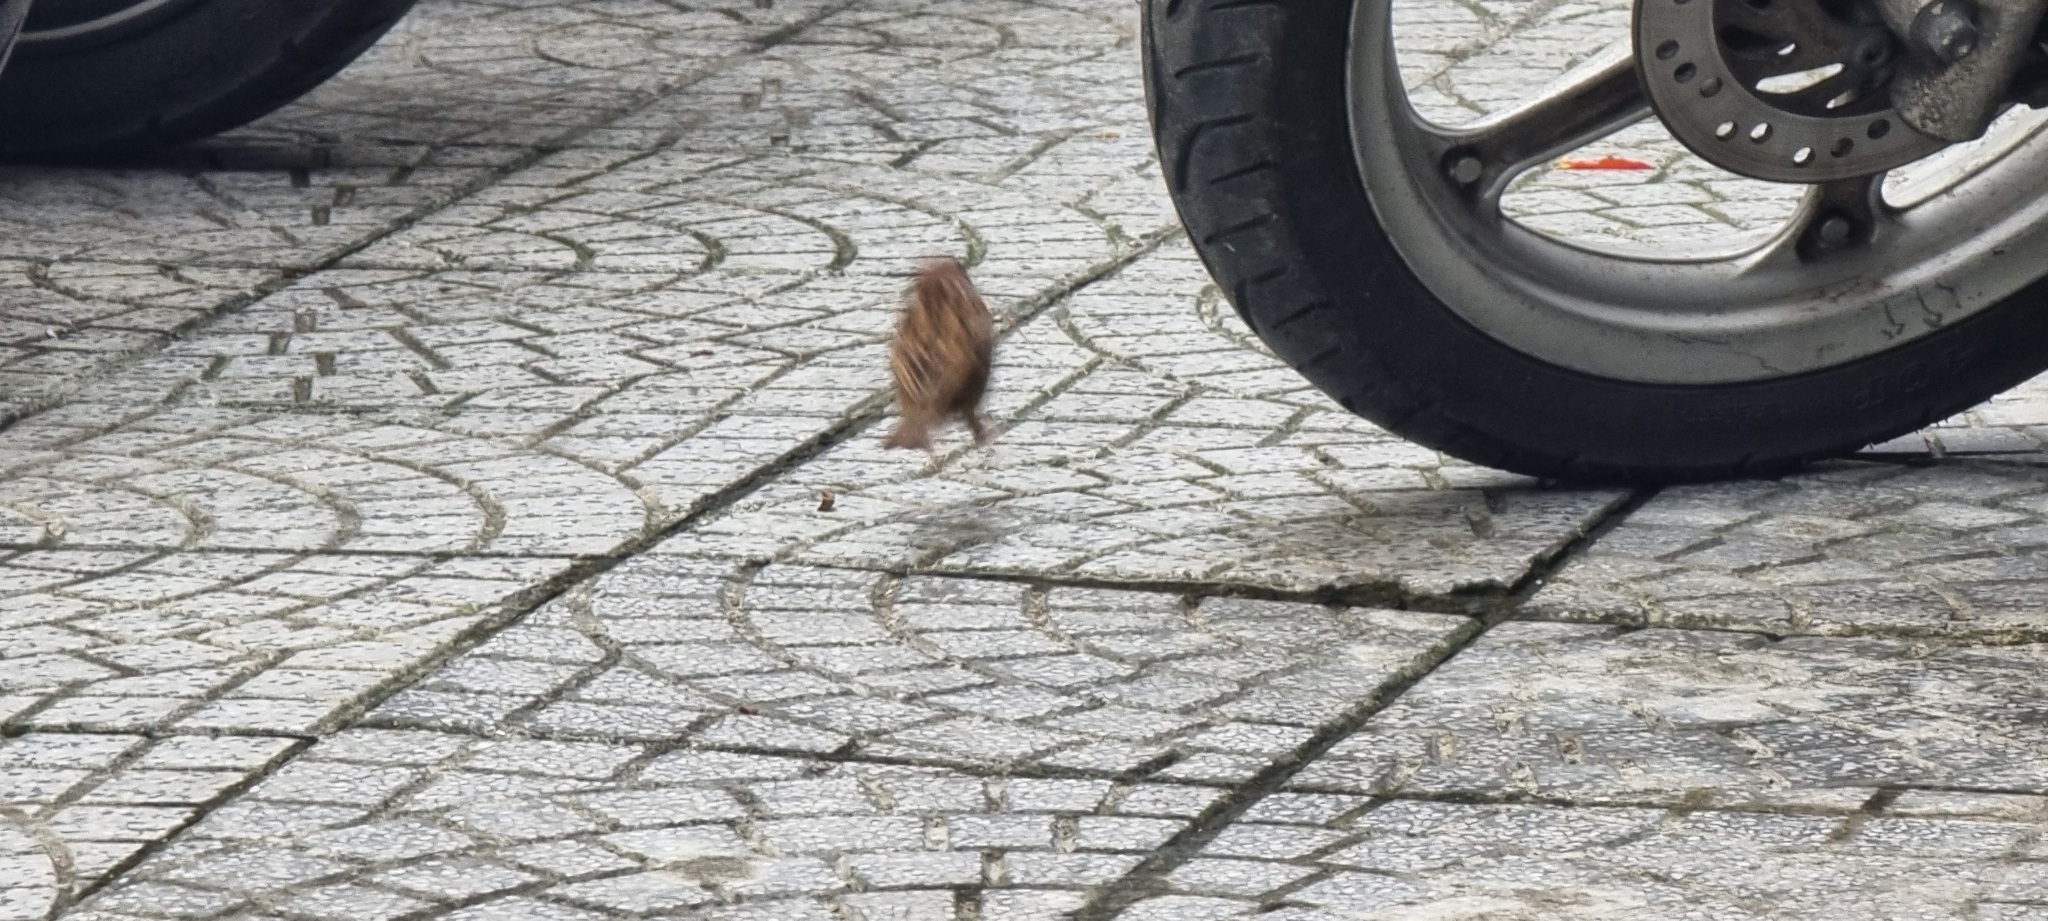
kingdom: Animalia
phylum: Chordata
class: Aves
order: Passeriformes
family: Passeridae
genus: Passer
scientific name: Passer montanus
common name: Eurasian tree sparrow
